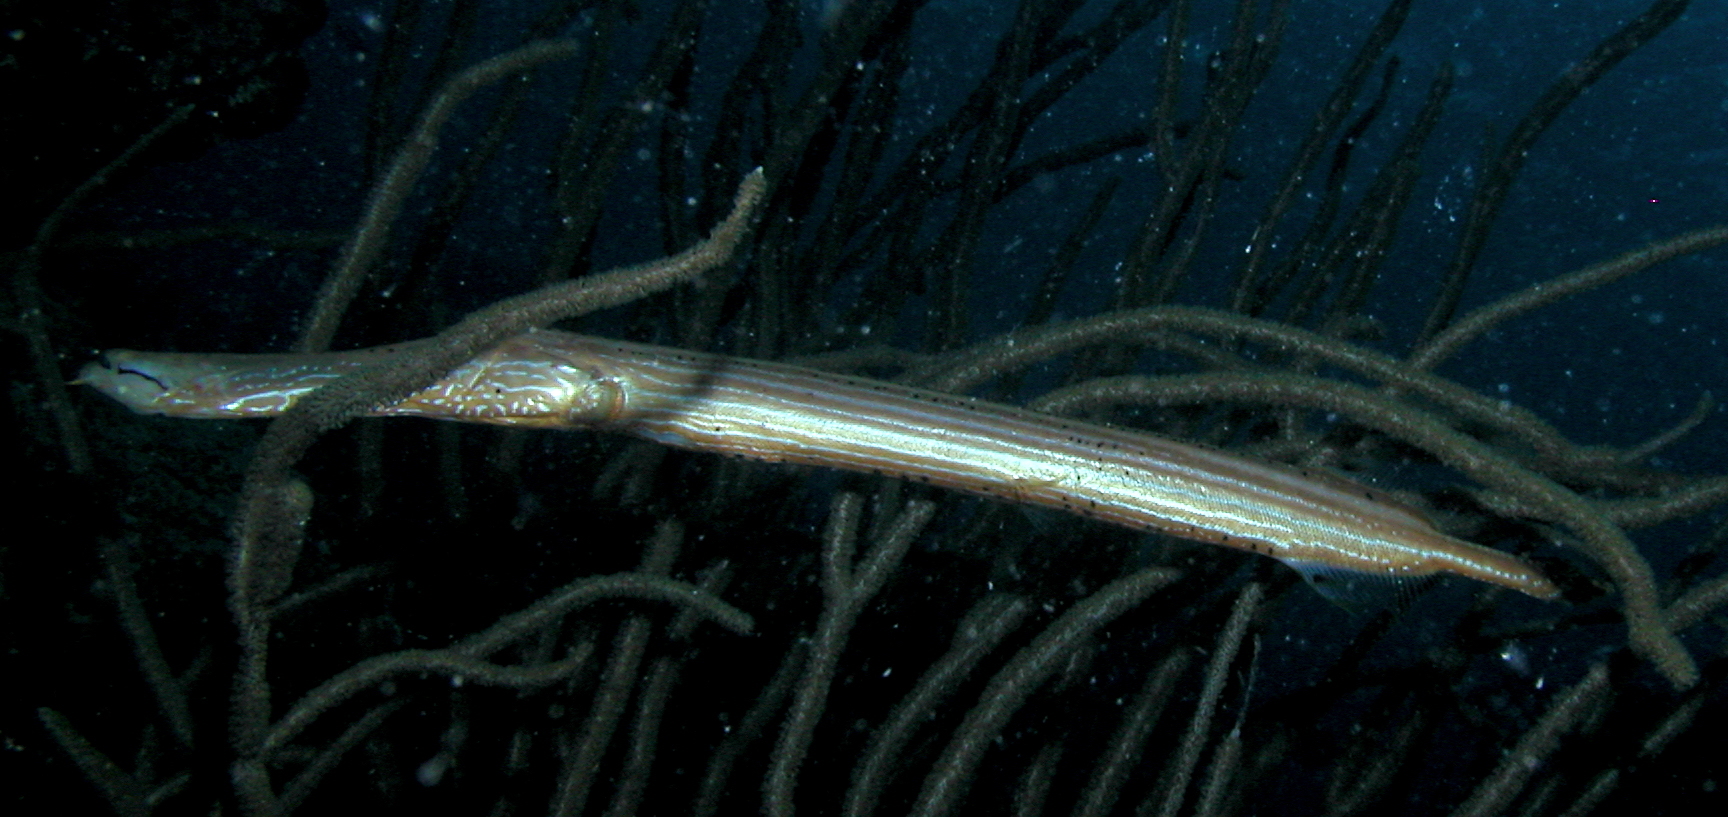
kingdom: Animalia
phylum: Chordata
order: Syngnathiformes
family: Aulostomidae
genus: Aulostomus
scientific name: Aulostomus maculatus
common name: West atlantic trumpetfish
